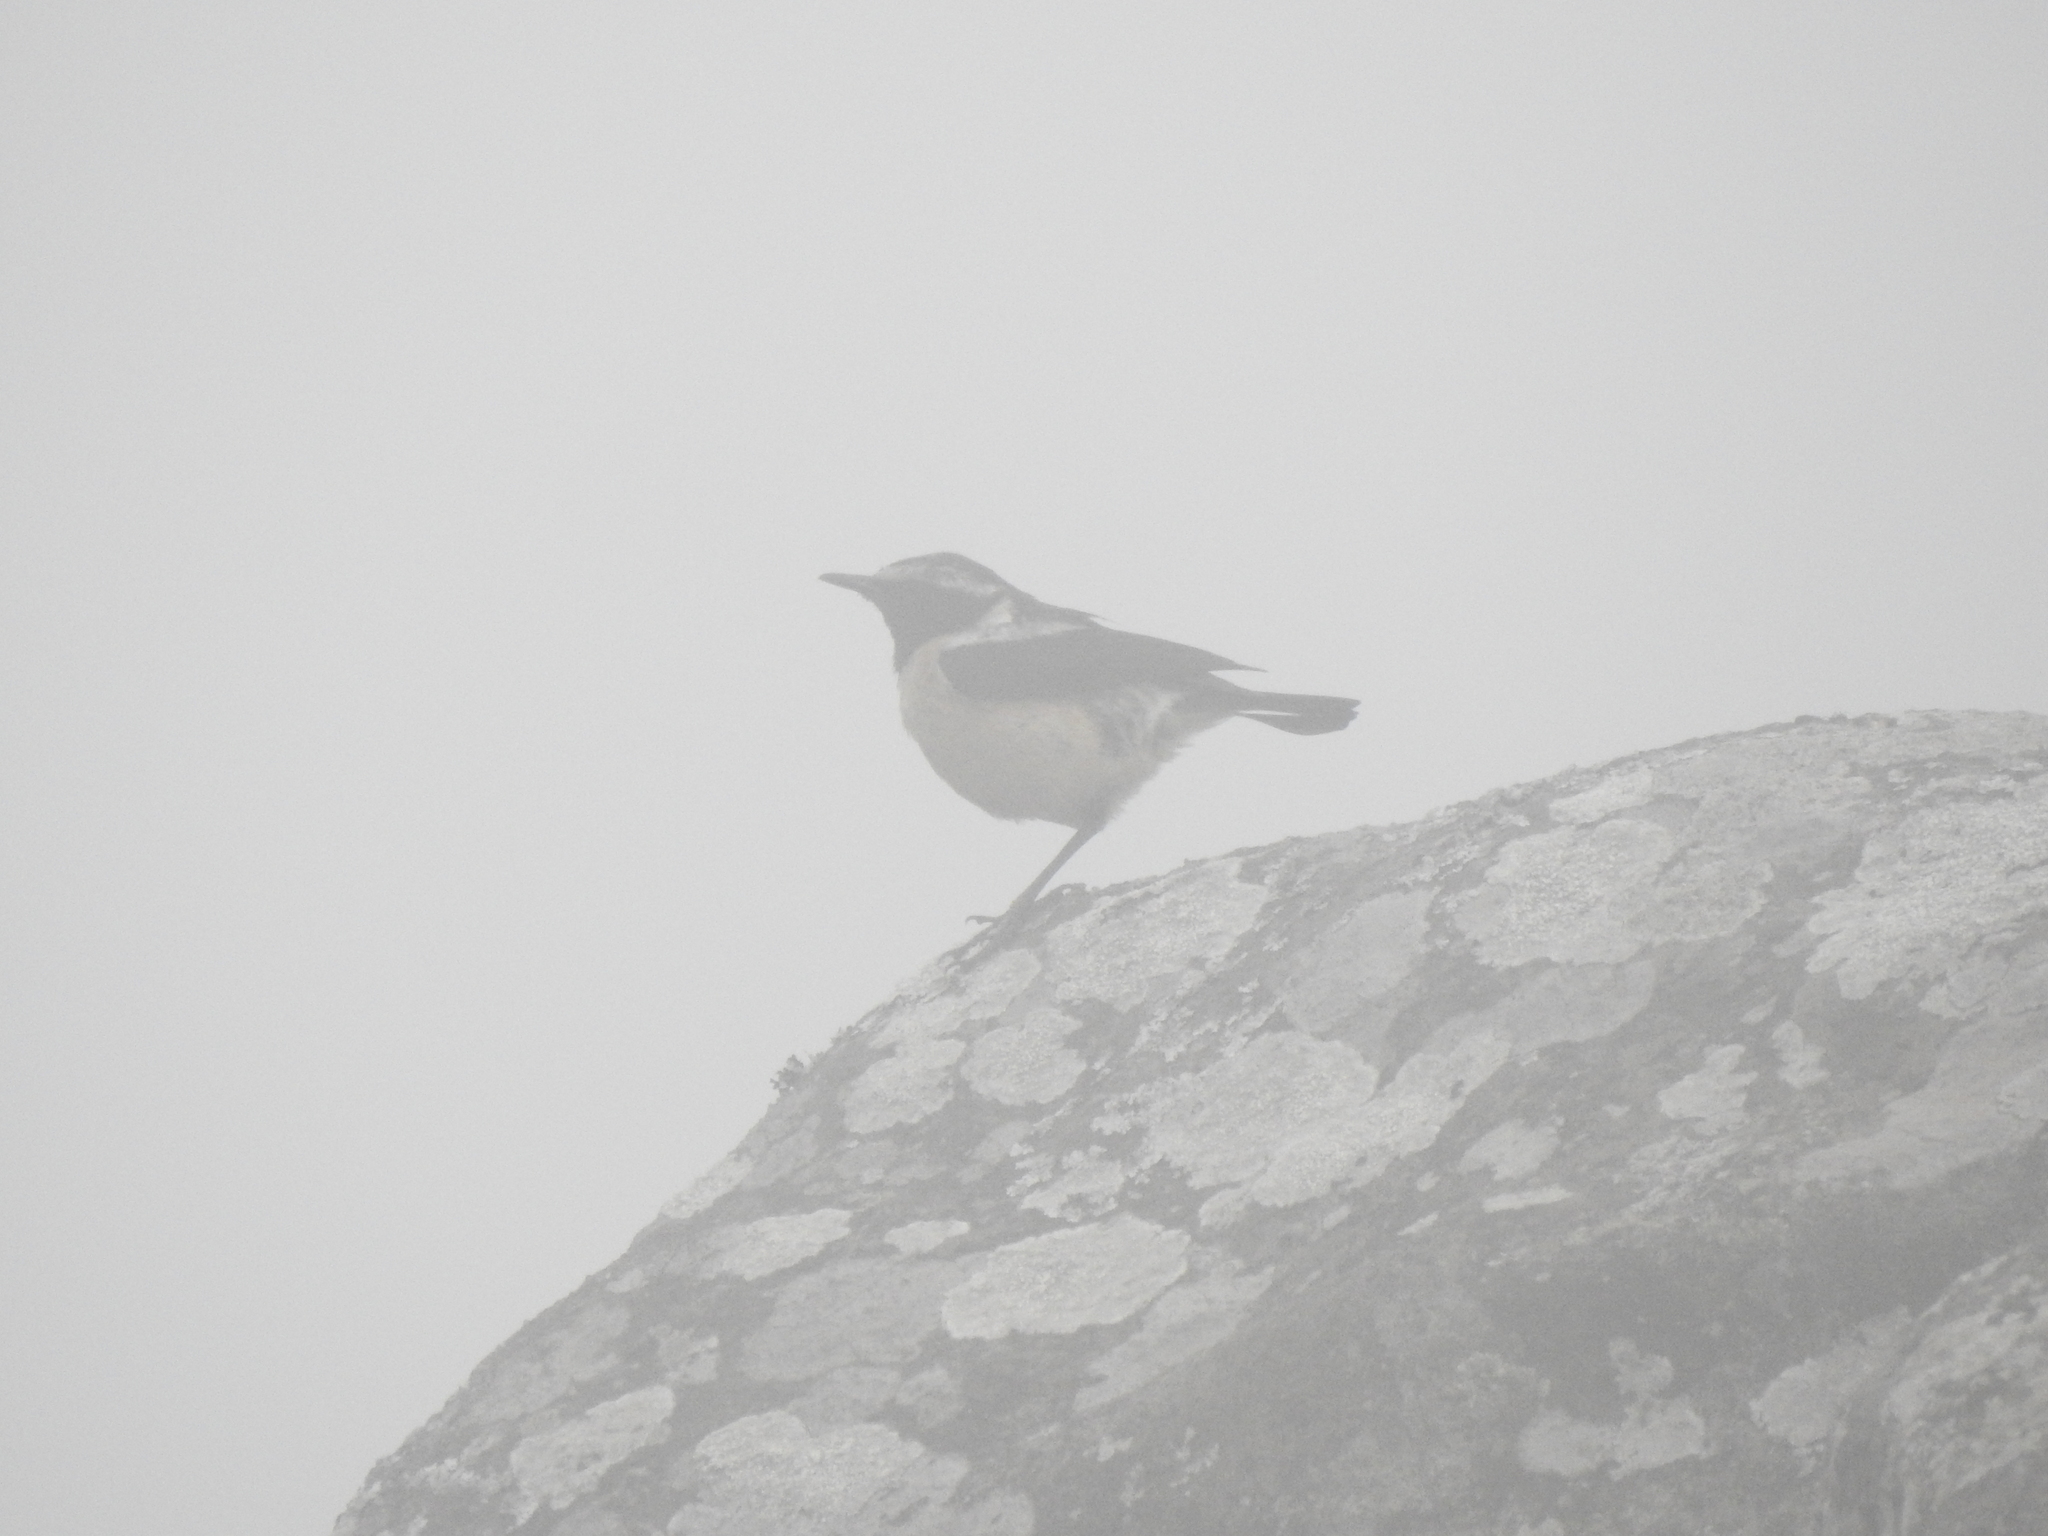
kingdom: Animalia
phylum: Chordata
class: Aves
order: Passeriformes
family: Muscicapidae
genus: Campicoloides
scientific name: Campicoloides bifasciatus
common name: Buff-streaked chat
